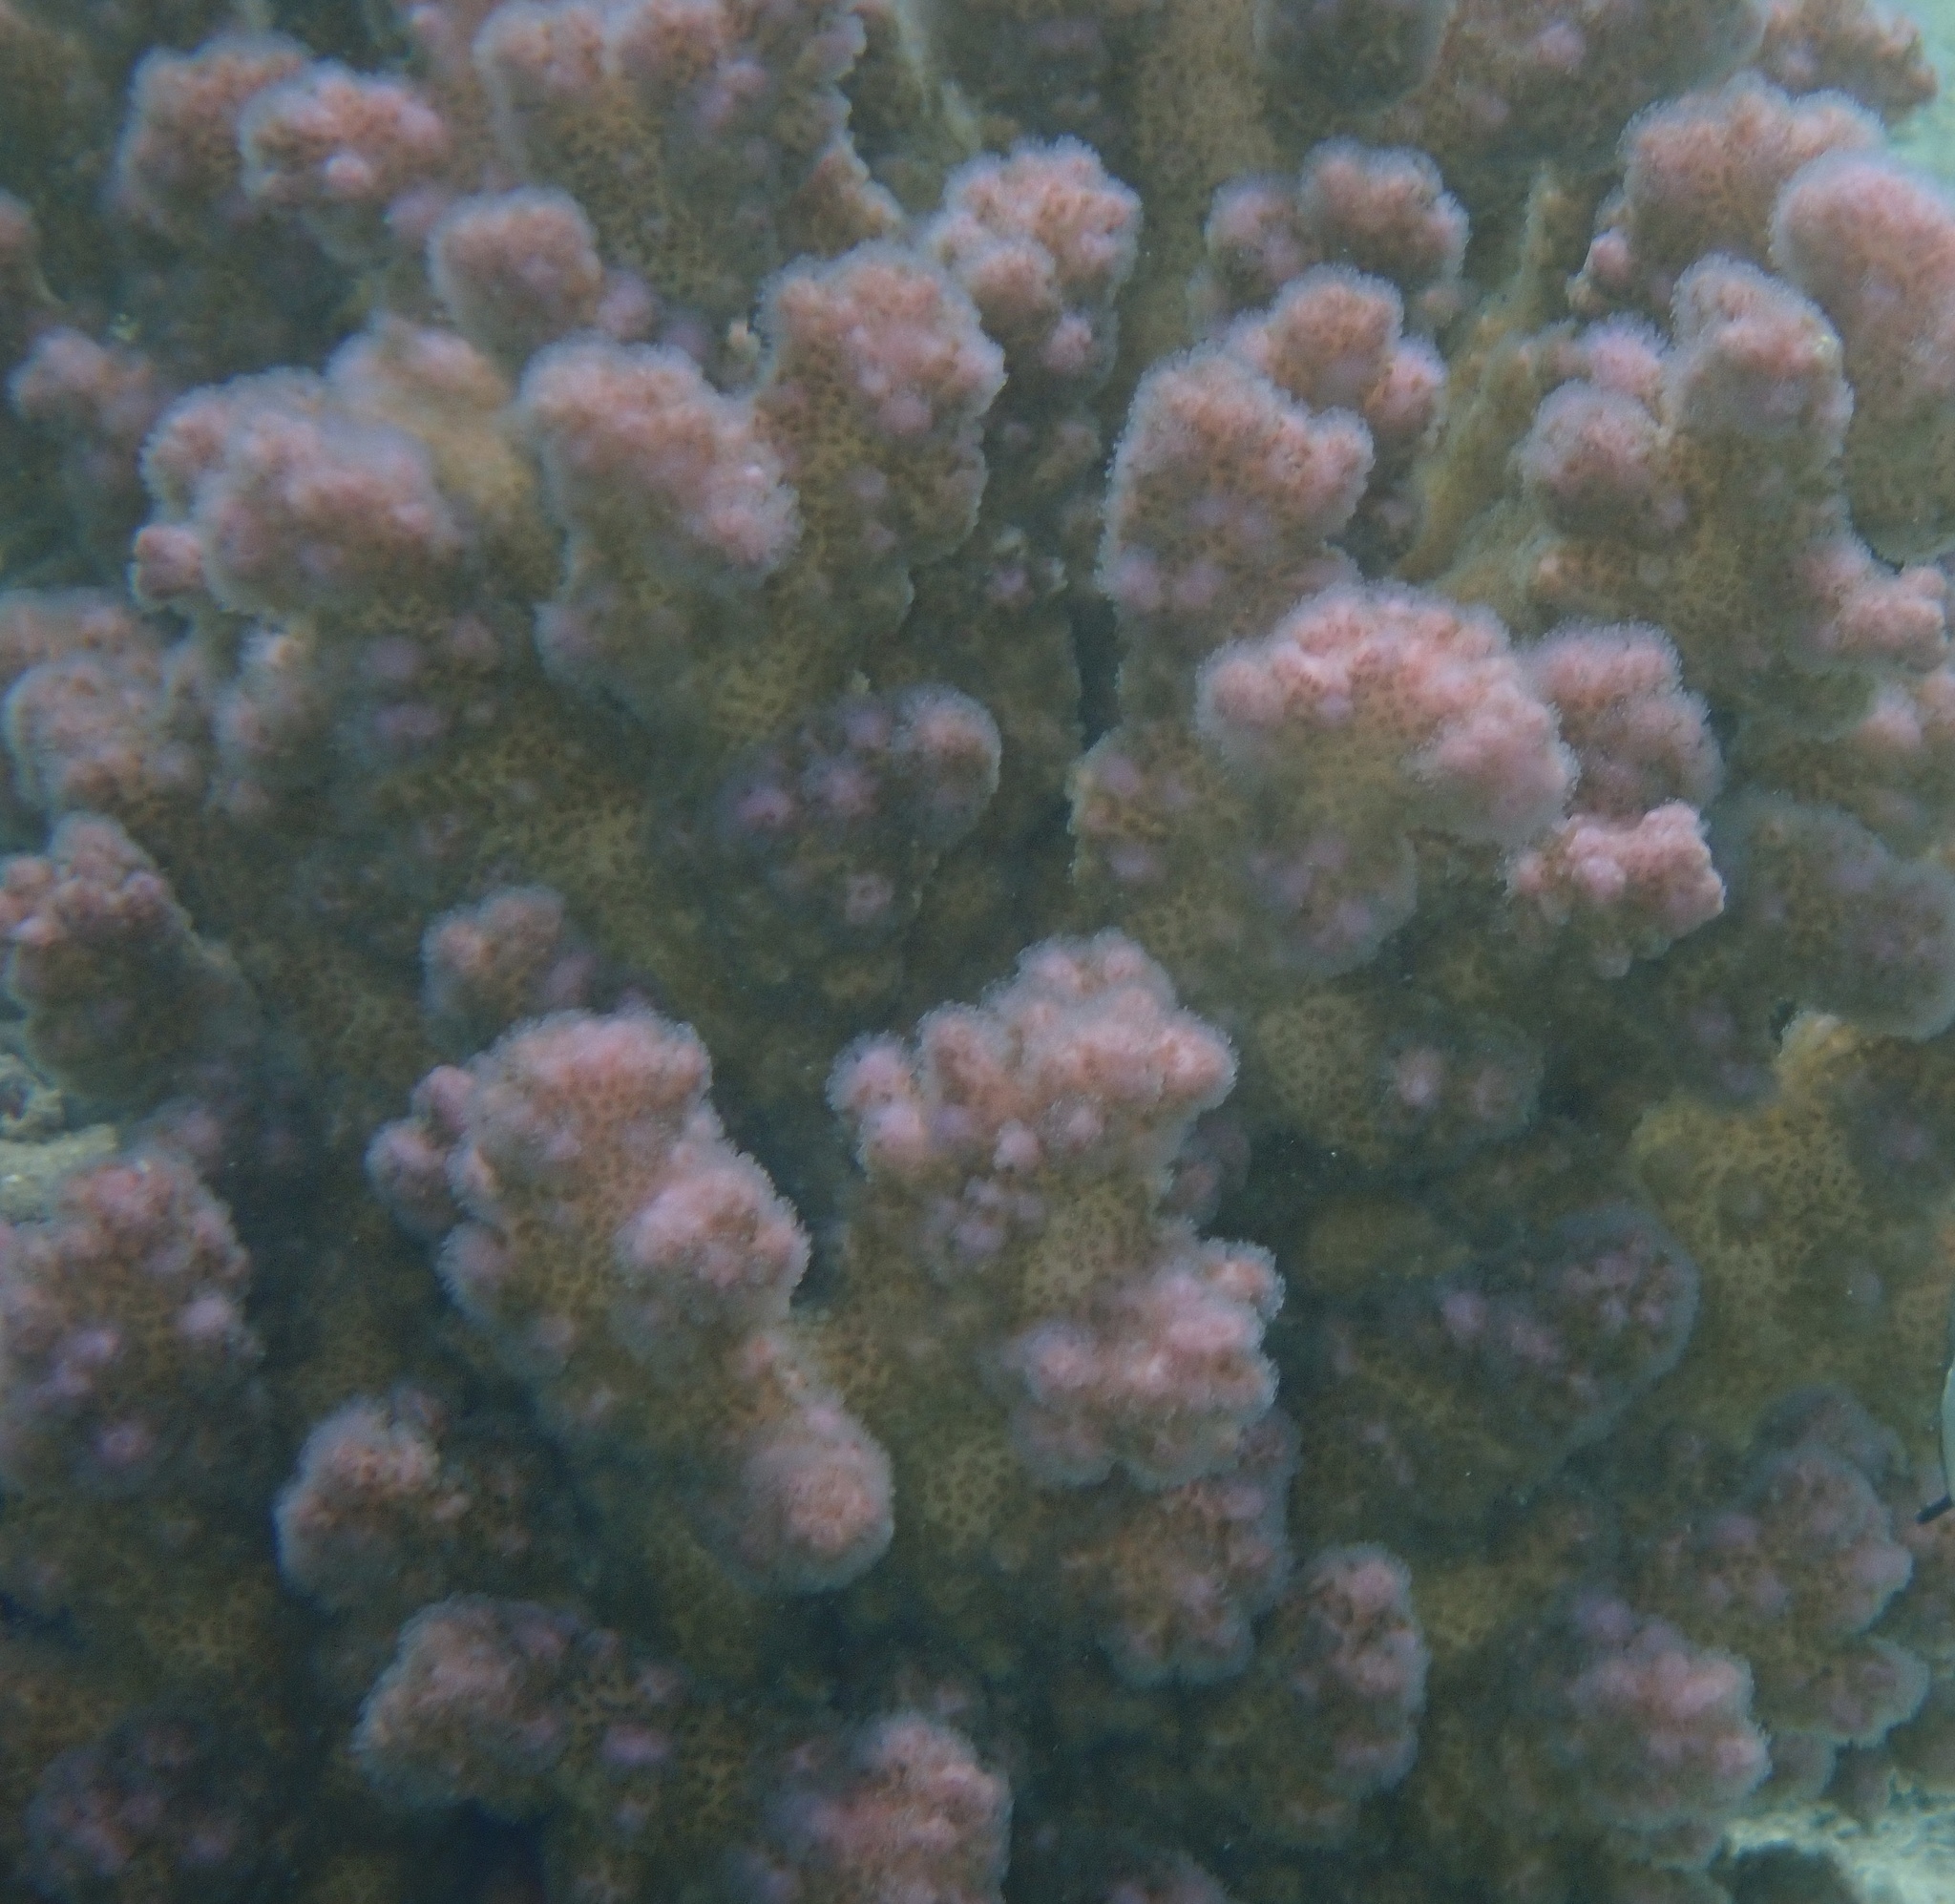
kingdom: Animalia
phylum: Cnidaria
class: Anthozoa
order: Scleractinia
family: Pocilloporidae
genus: Pocillopora
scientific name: Pocillopora verrucosa
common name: Cauliflower coral
